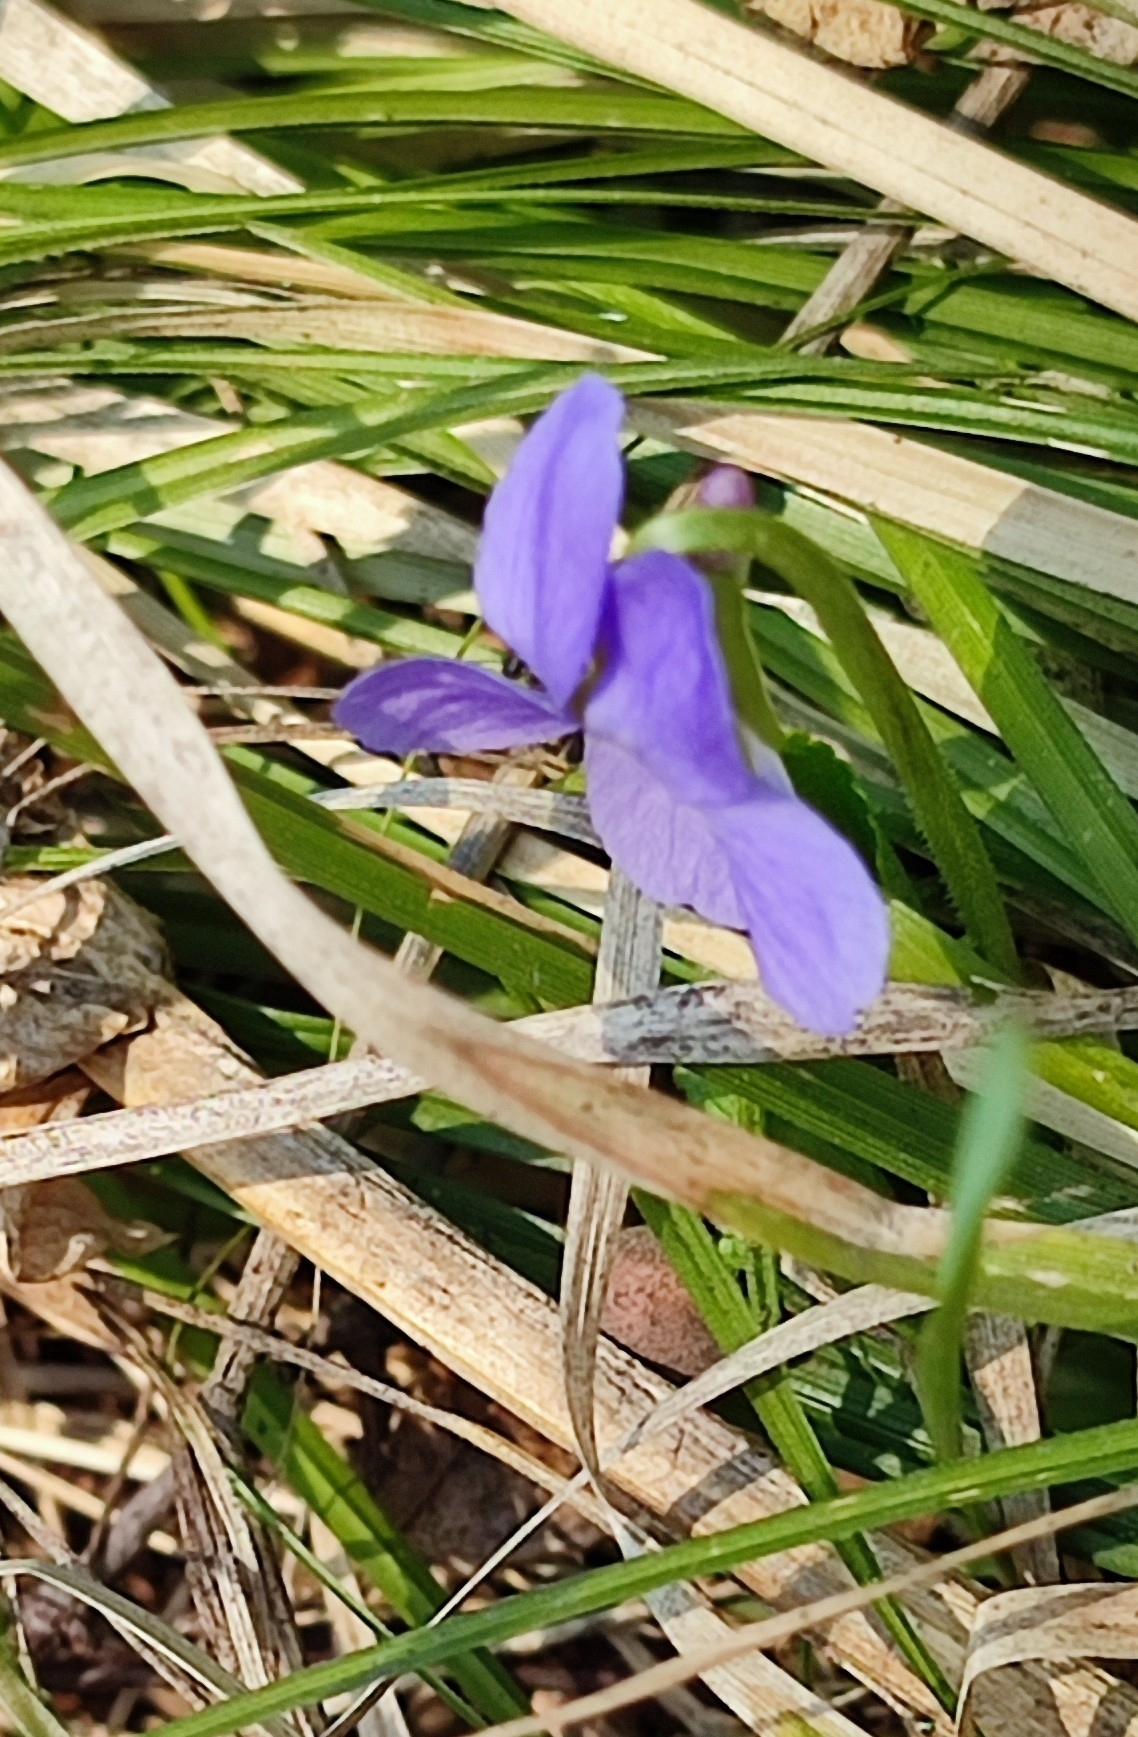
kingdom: Plantae
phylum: Tracheophyta
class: Magnoliopsida
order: Malpighiales
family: Violaceae
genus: Viola
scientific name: Viola hirta
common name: Hairy violet
